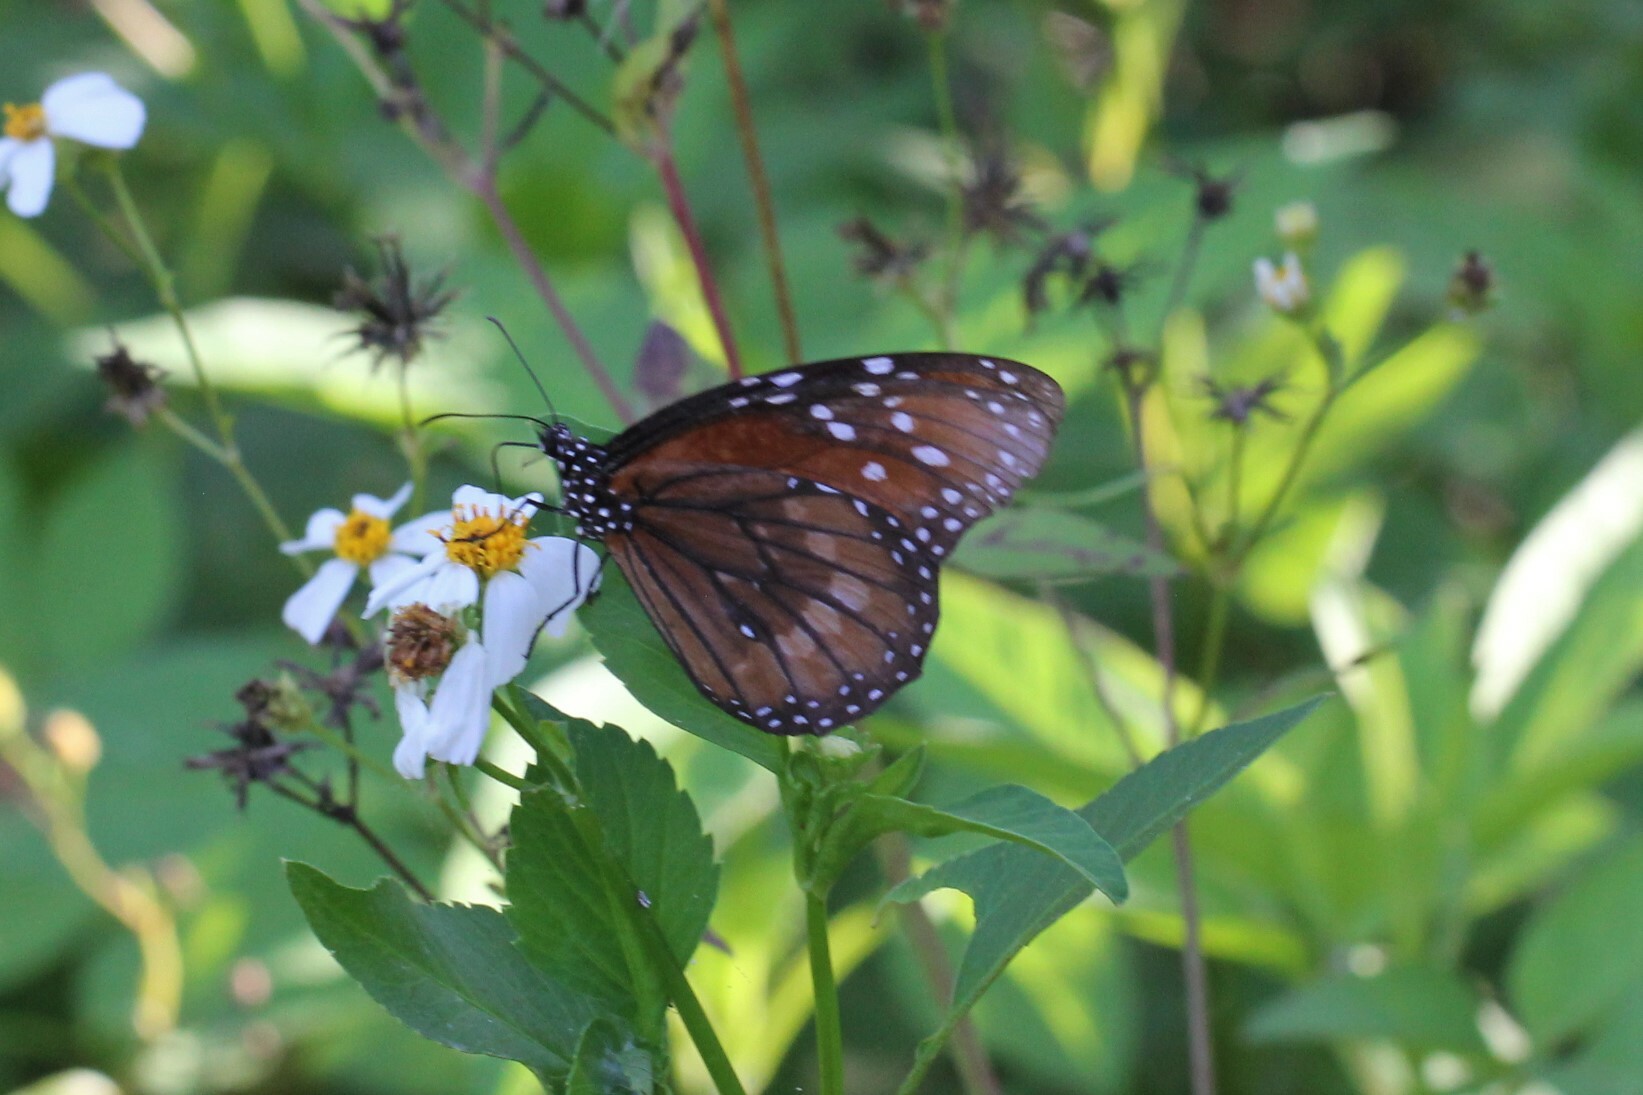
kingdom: Animalia
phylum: Arthropoda
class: Insecta
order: Lepidoptera
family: Nymphalidae
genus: Danaus
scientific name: Danaus eresimus
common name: Soldier
